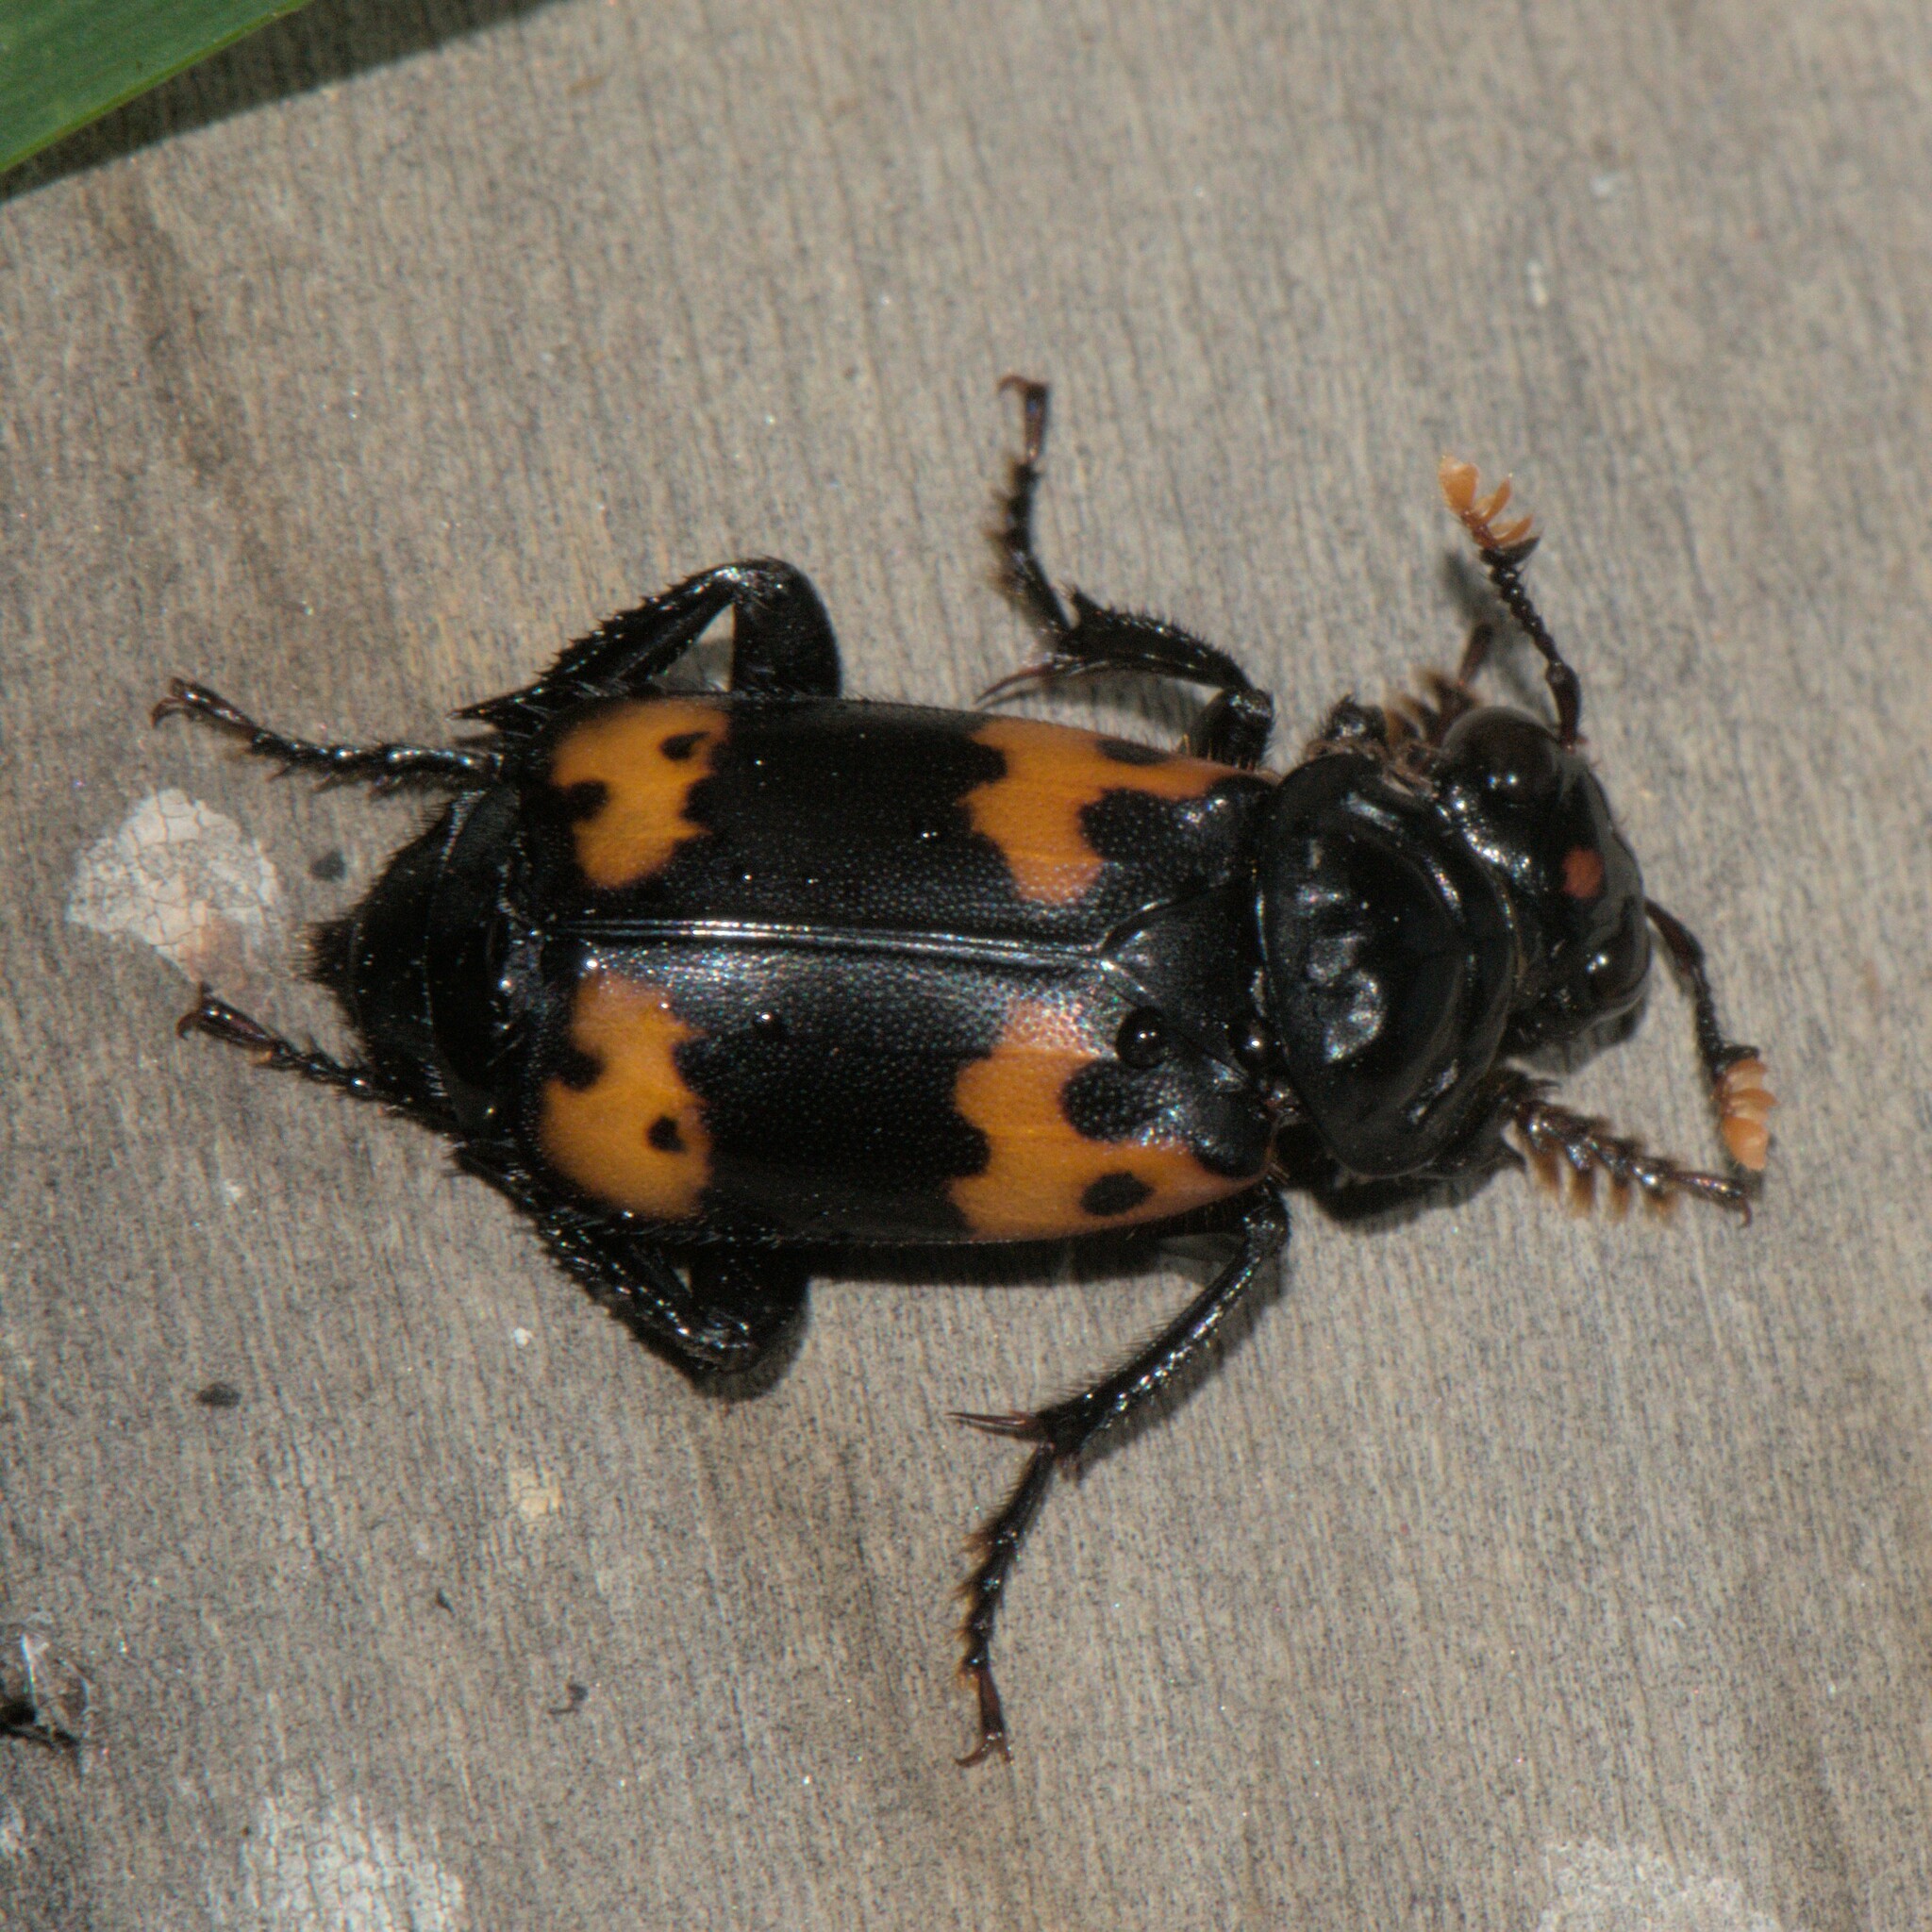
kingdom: Animalia
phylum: Arthropoda
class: Insecta
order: Coleoptera
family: Staphylinidae
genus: Nicrophorus
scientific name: Nicrophorus nepalensis
